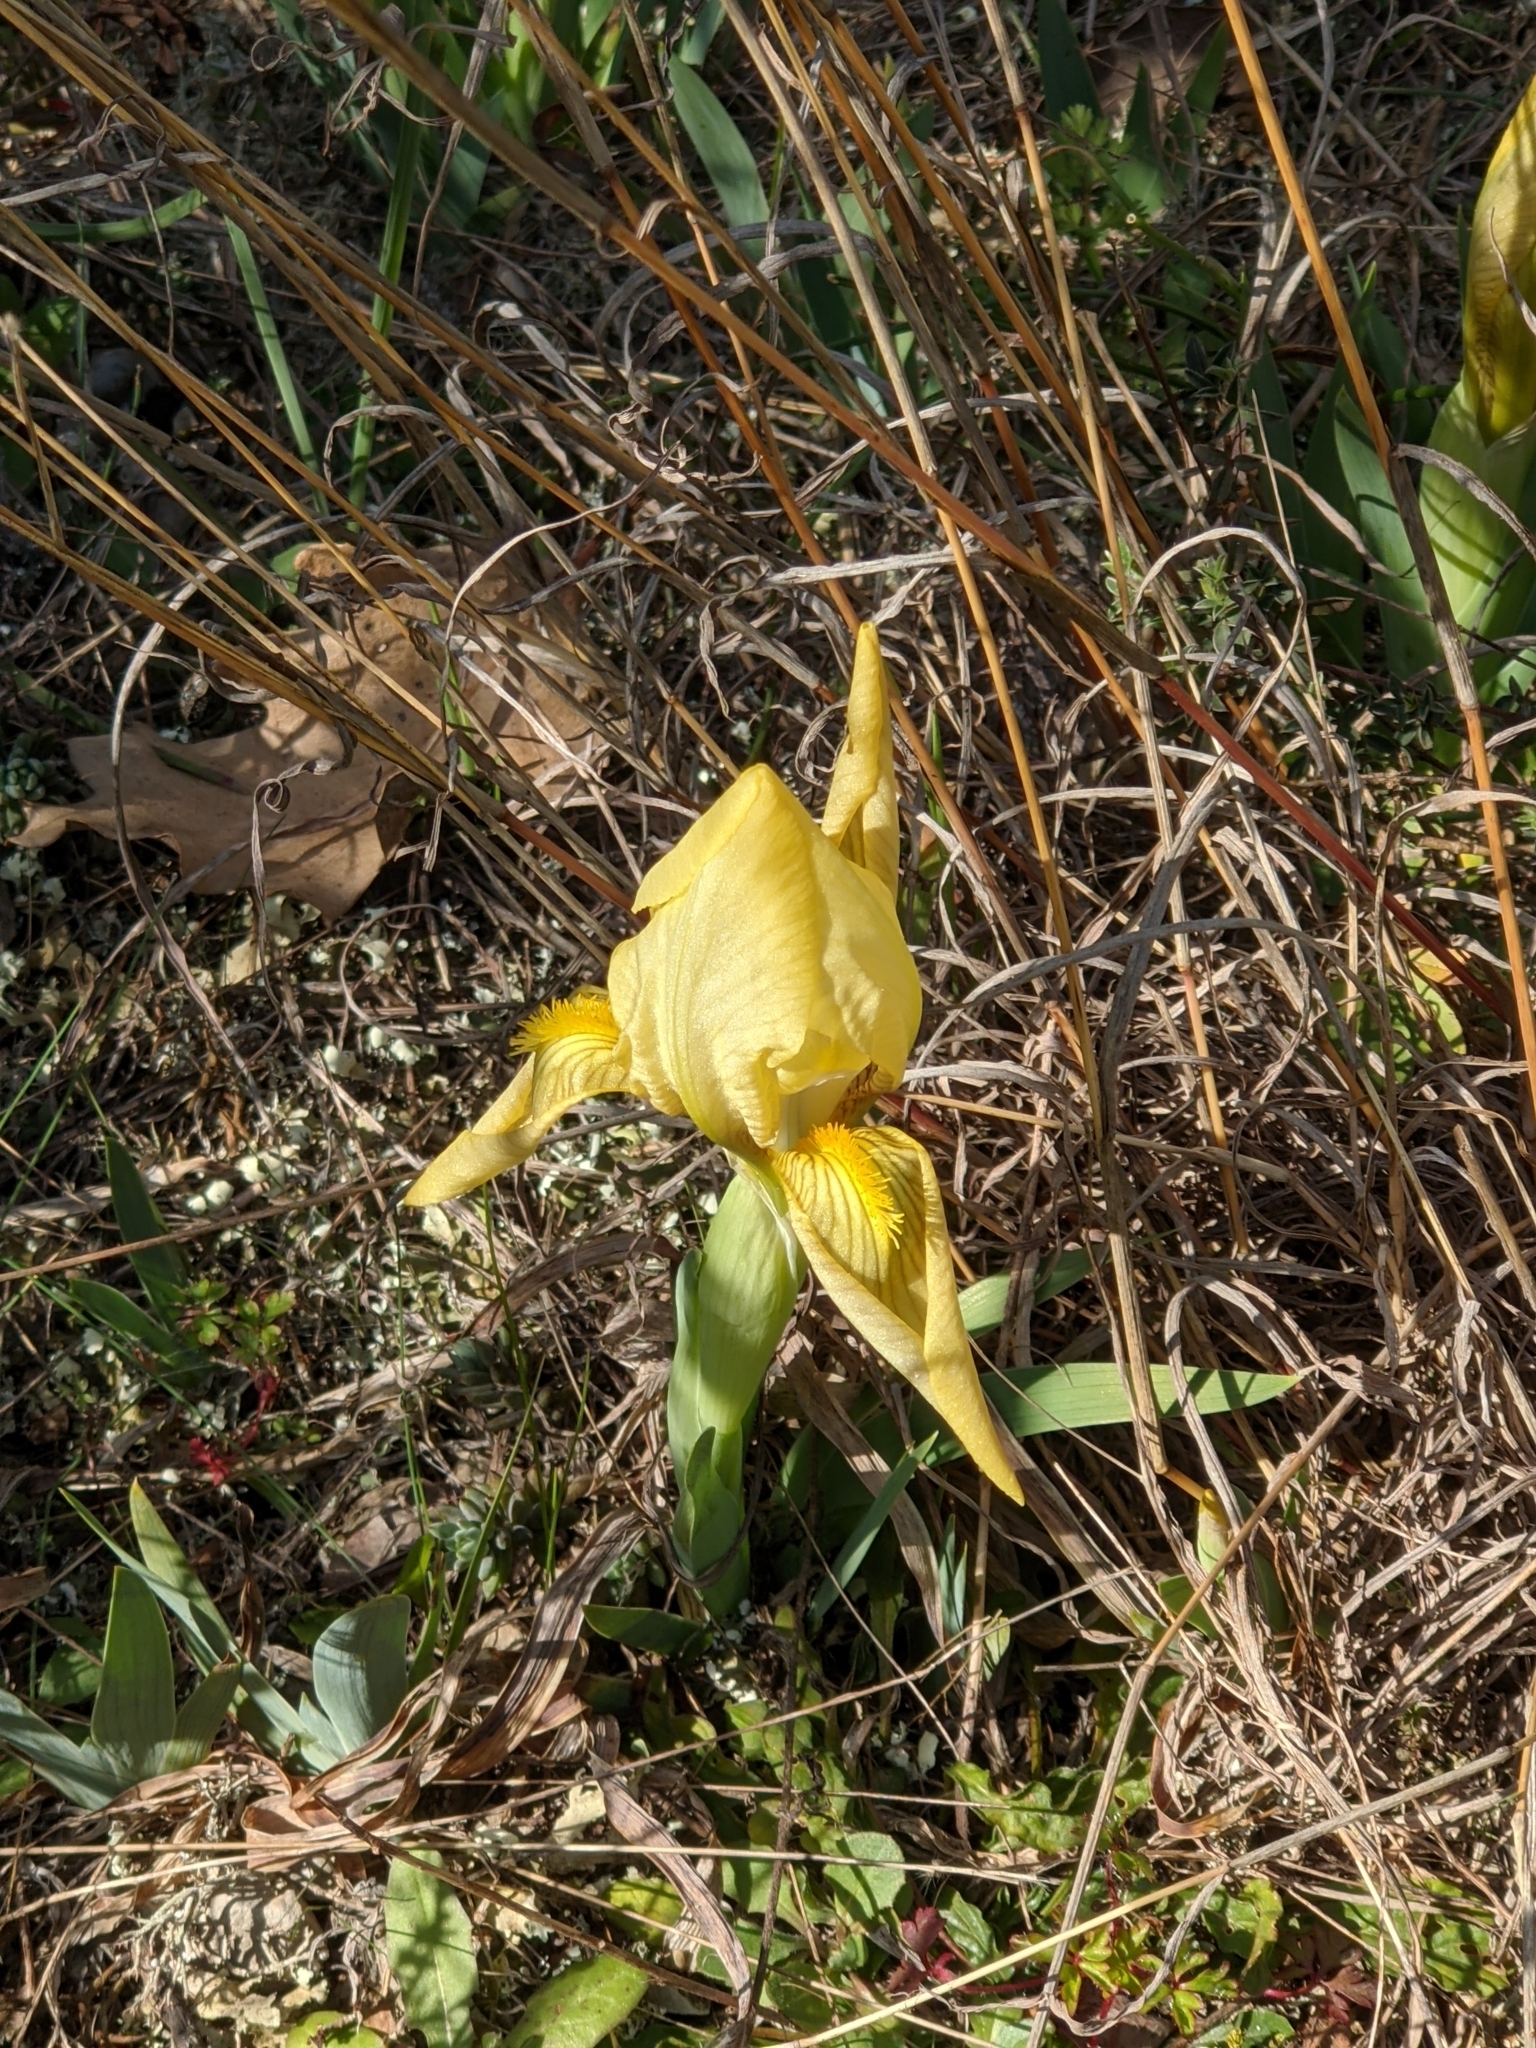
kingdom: Plantae
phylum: Tracheophyta
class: Liliopsida
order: Asparagales
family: Iridaceae
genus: Iris
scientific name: Iris lutescens
